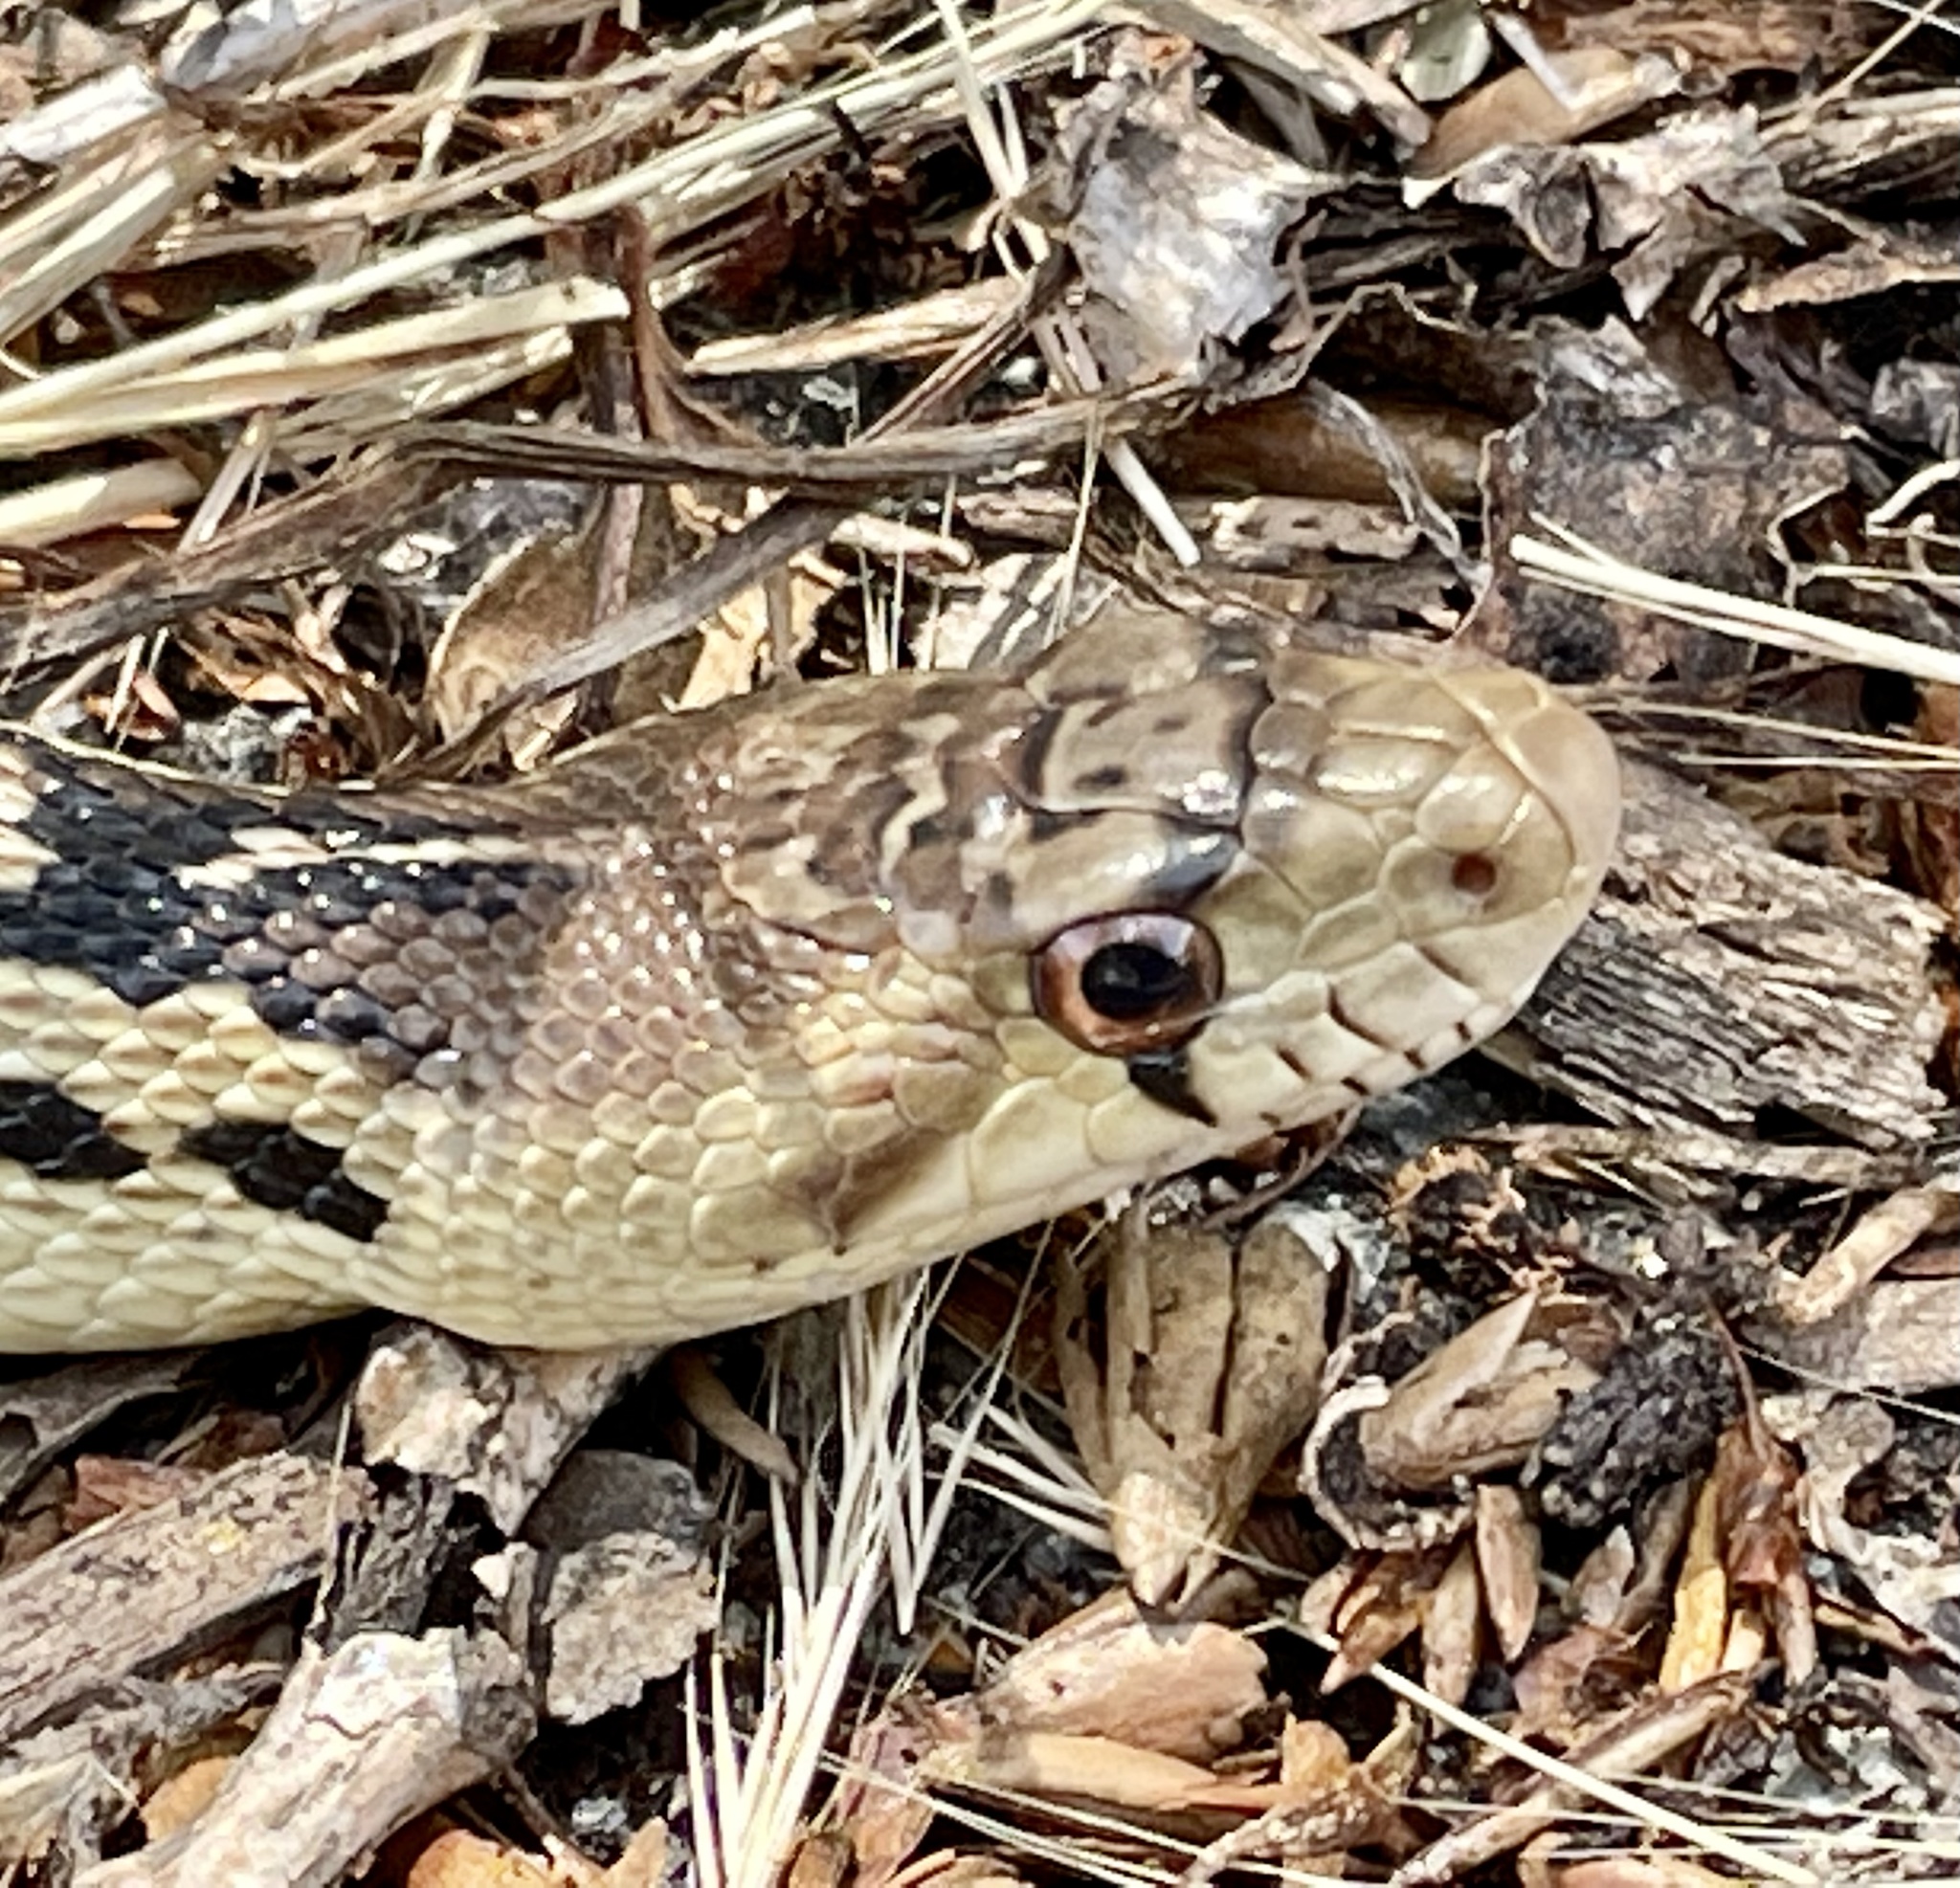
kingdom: Animalia
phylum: Chordata
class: Squamata
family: Colubridae
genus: Pituophis
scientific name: Pituophis catenifer
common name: Gopher snake
